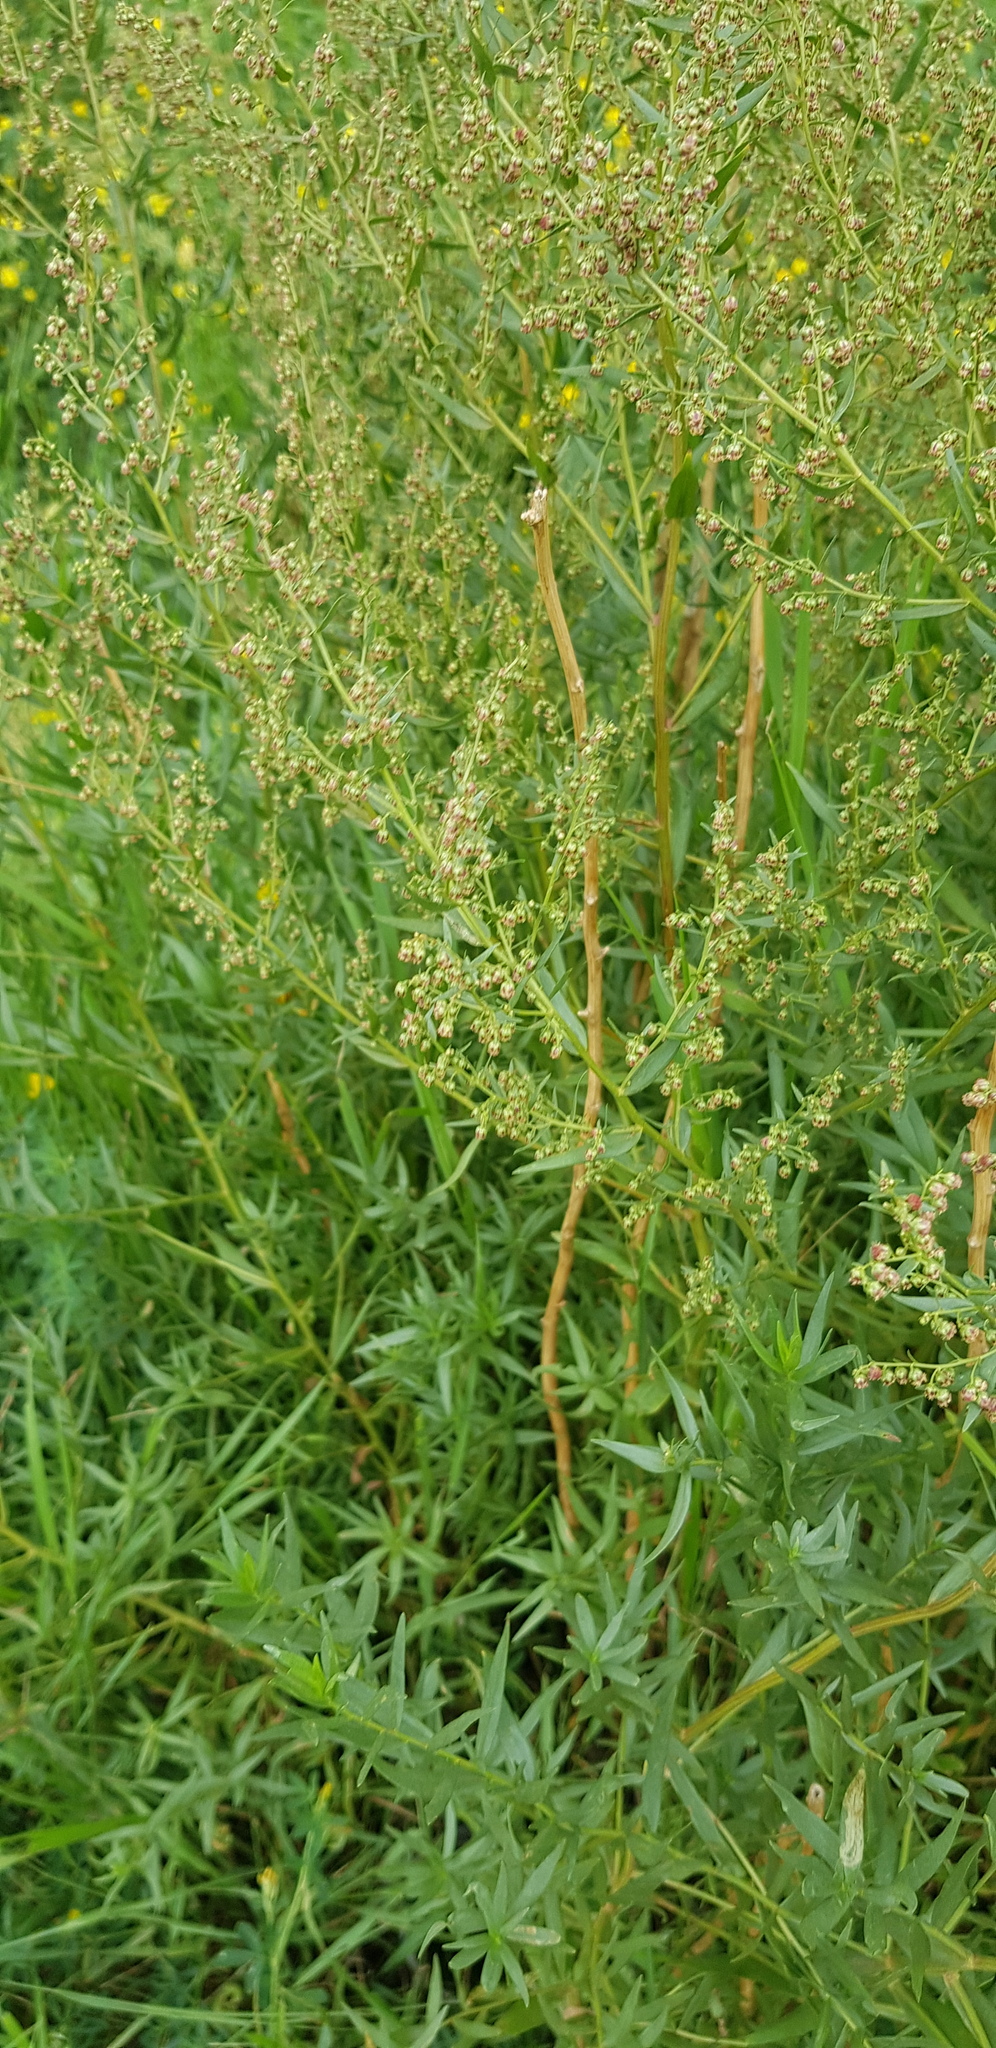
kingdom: Plantae
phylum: Tracheophyta
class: Magnoliopsida
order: Asterales
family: Asteraceae
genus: Artemisia
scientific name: Artemisia dracunculus
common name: Tarragon
